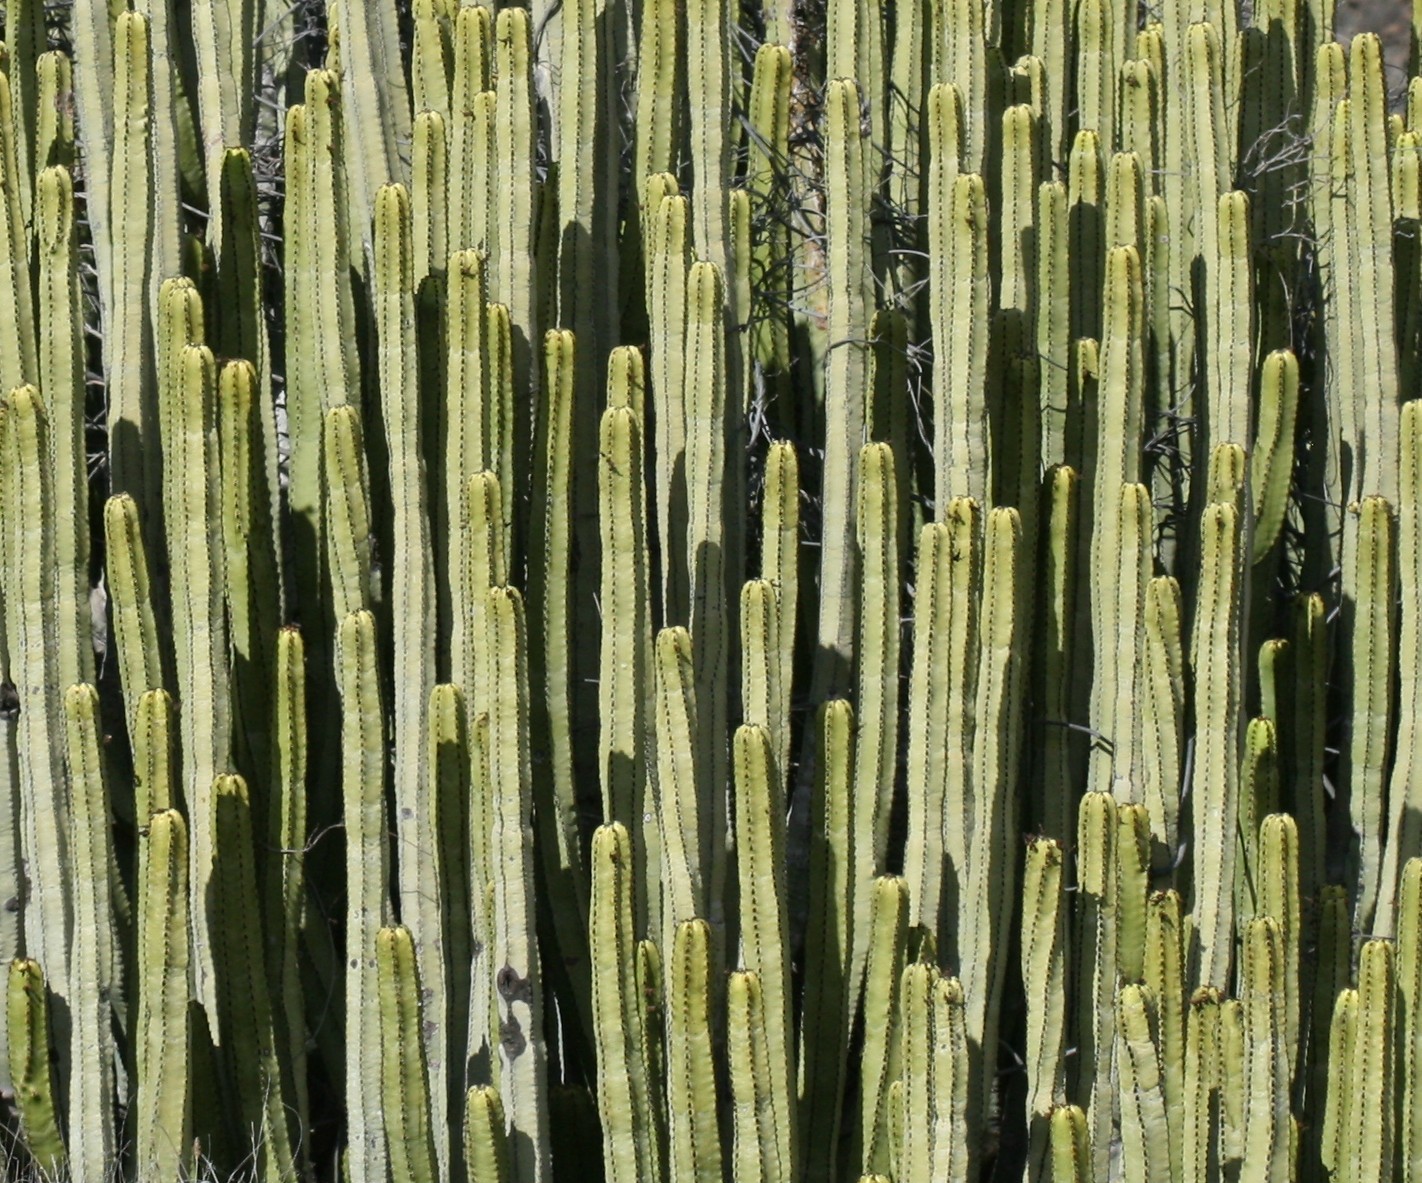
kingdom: Plantae
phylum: Tracheophyta
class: Magnoliopsida
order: Malpighiales
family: Euphorbiaceae
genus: Euphorbia
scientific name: Euphorbia canariensis
